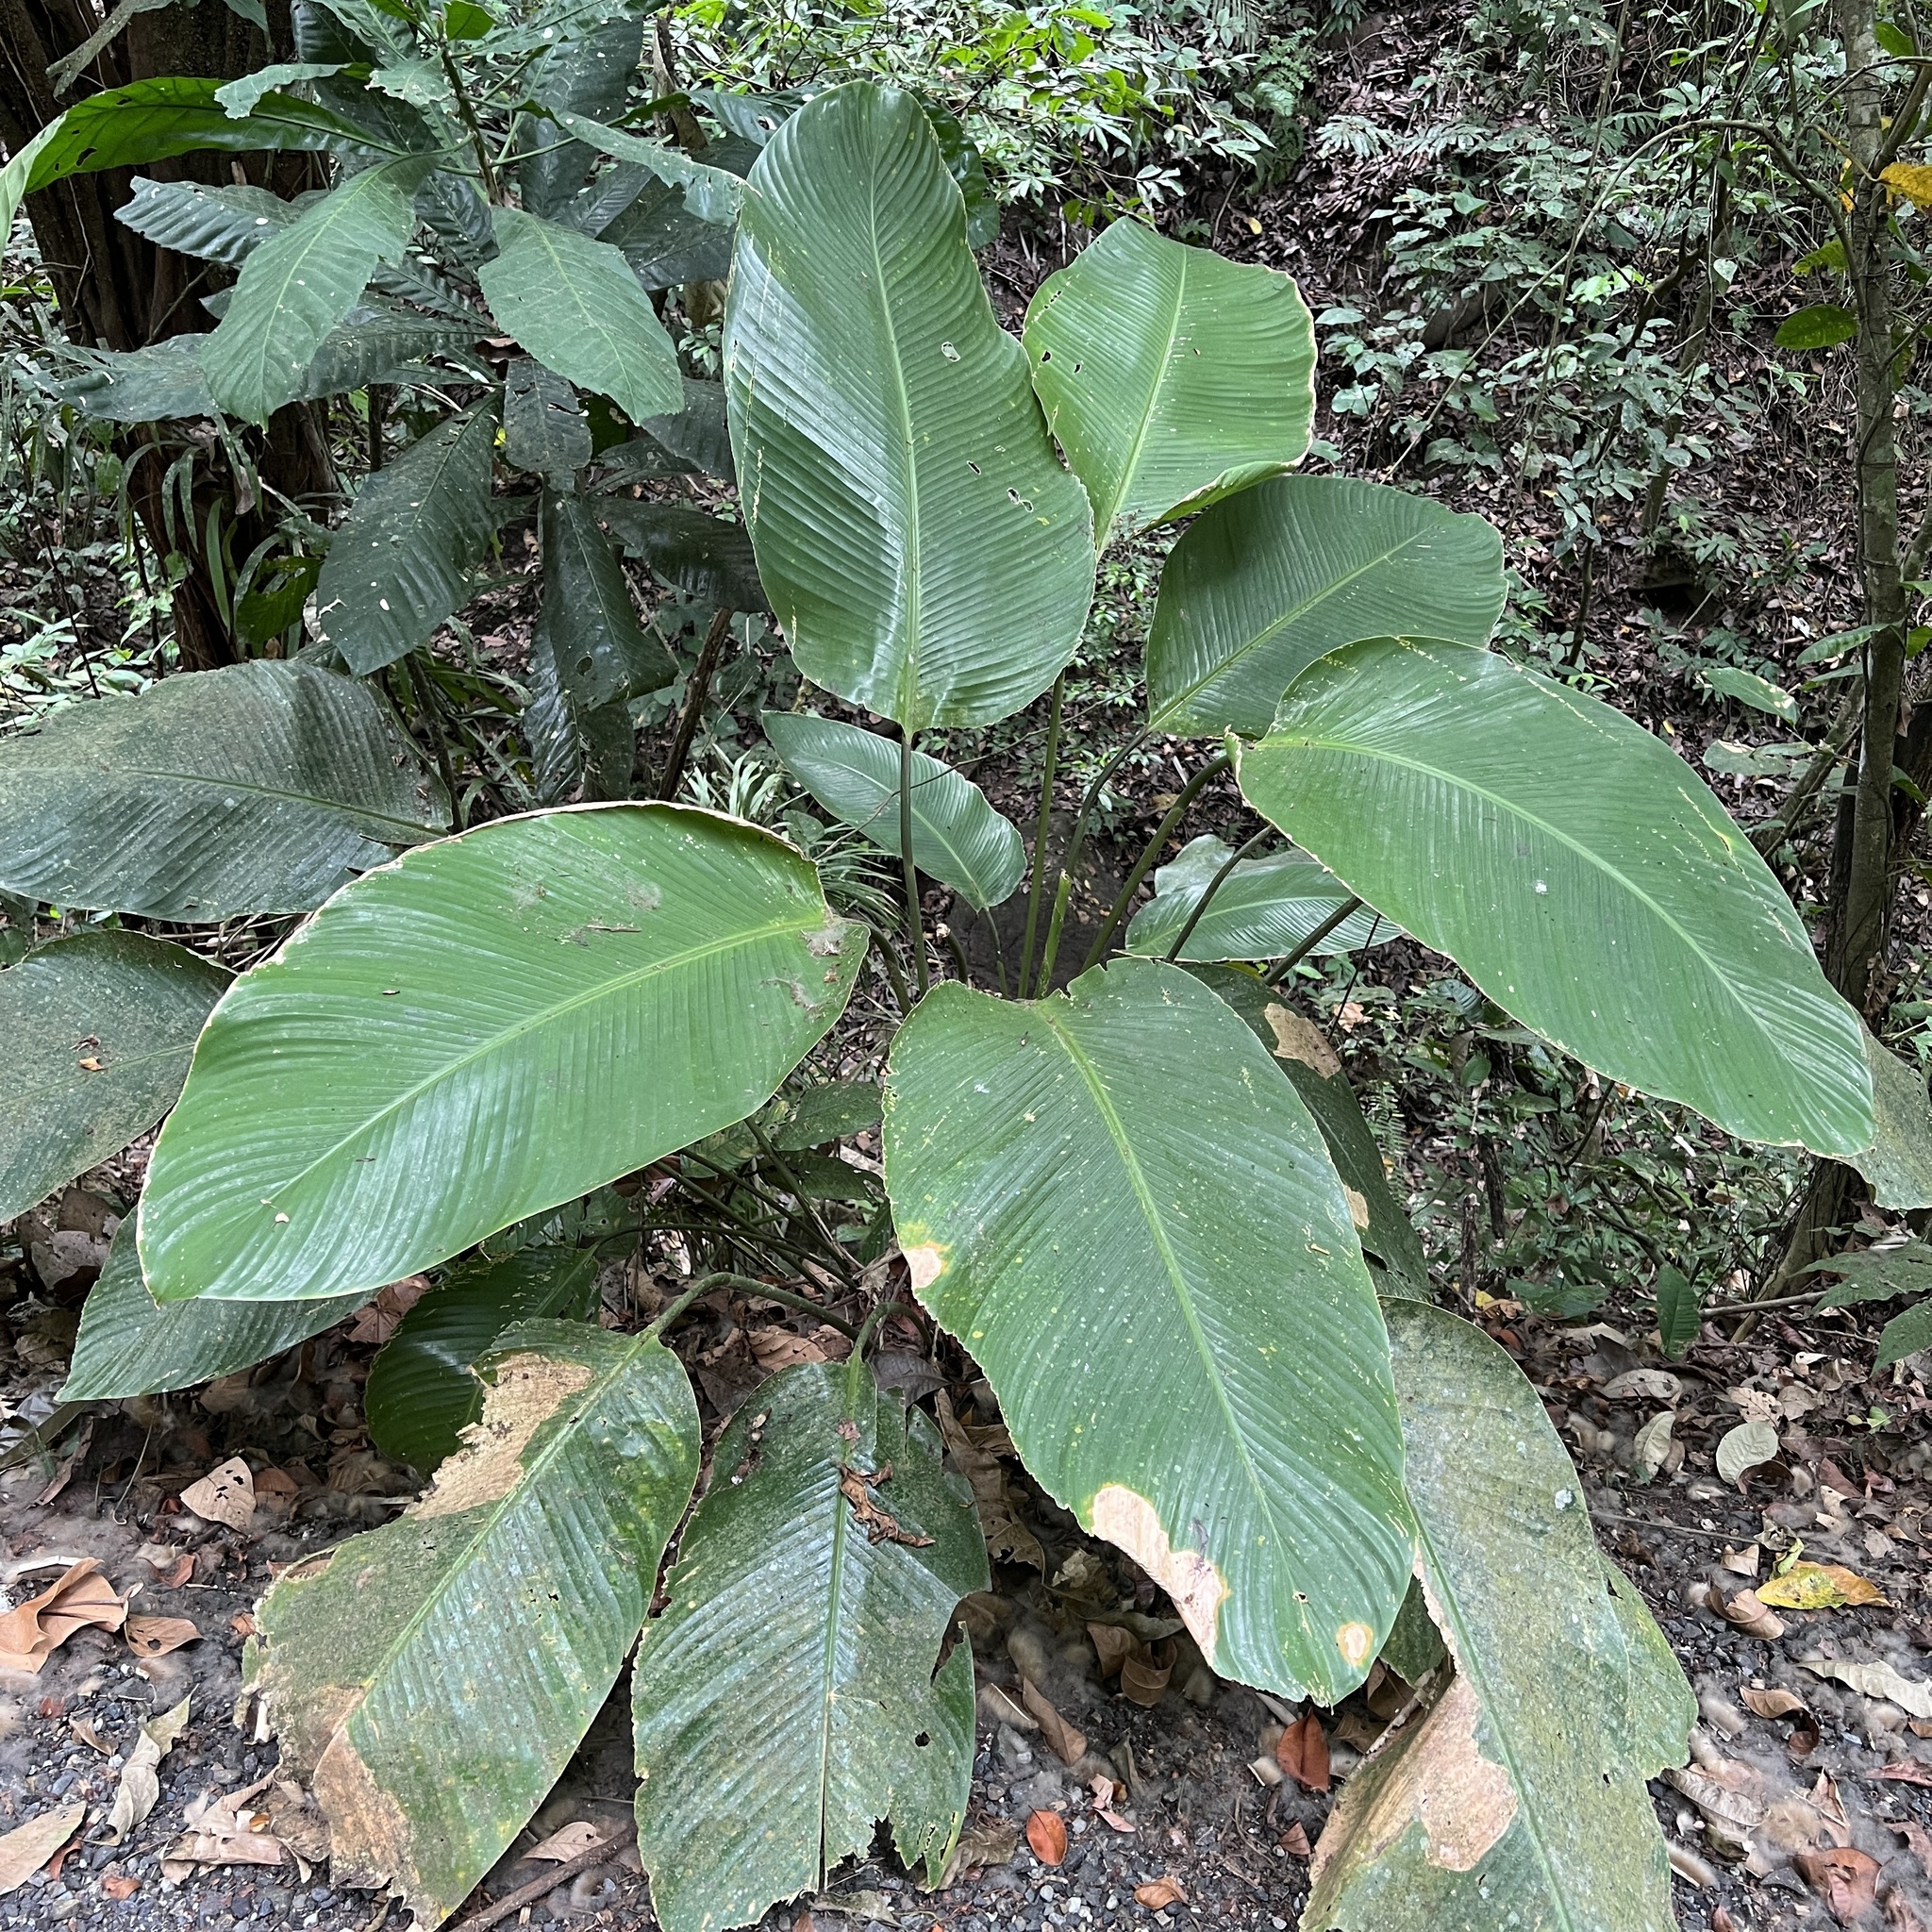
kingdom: Plantae
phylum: Tracheophyta
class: Liliopsida
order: Zingiberales
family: Marantaceae
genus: Calathea
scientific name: Calathea crotalifera
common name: Rattlesnake plant
